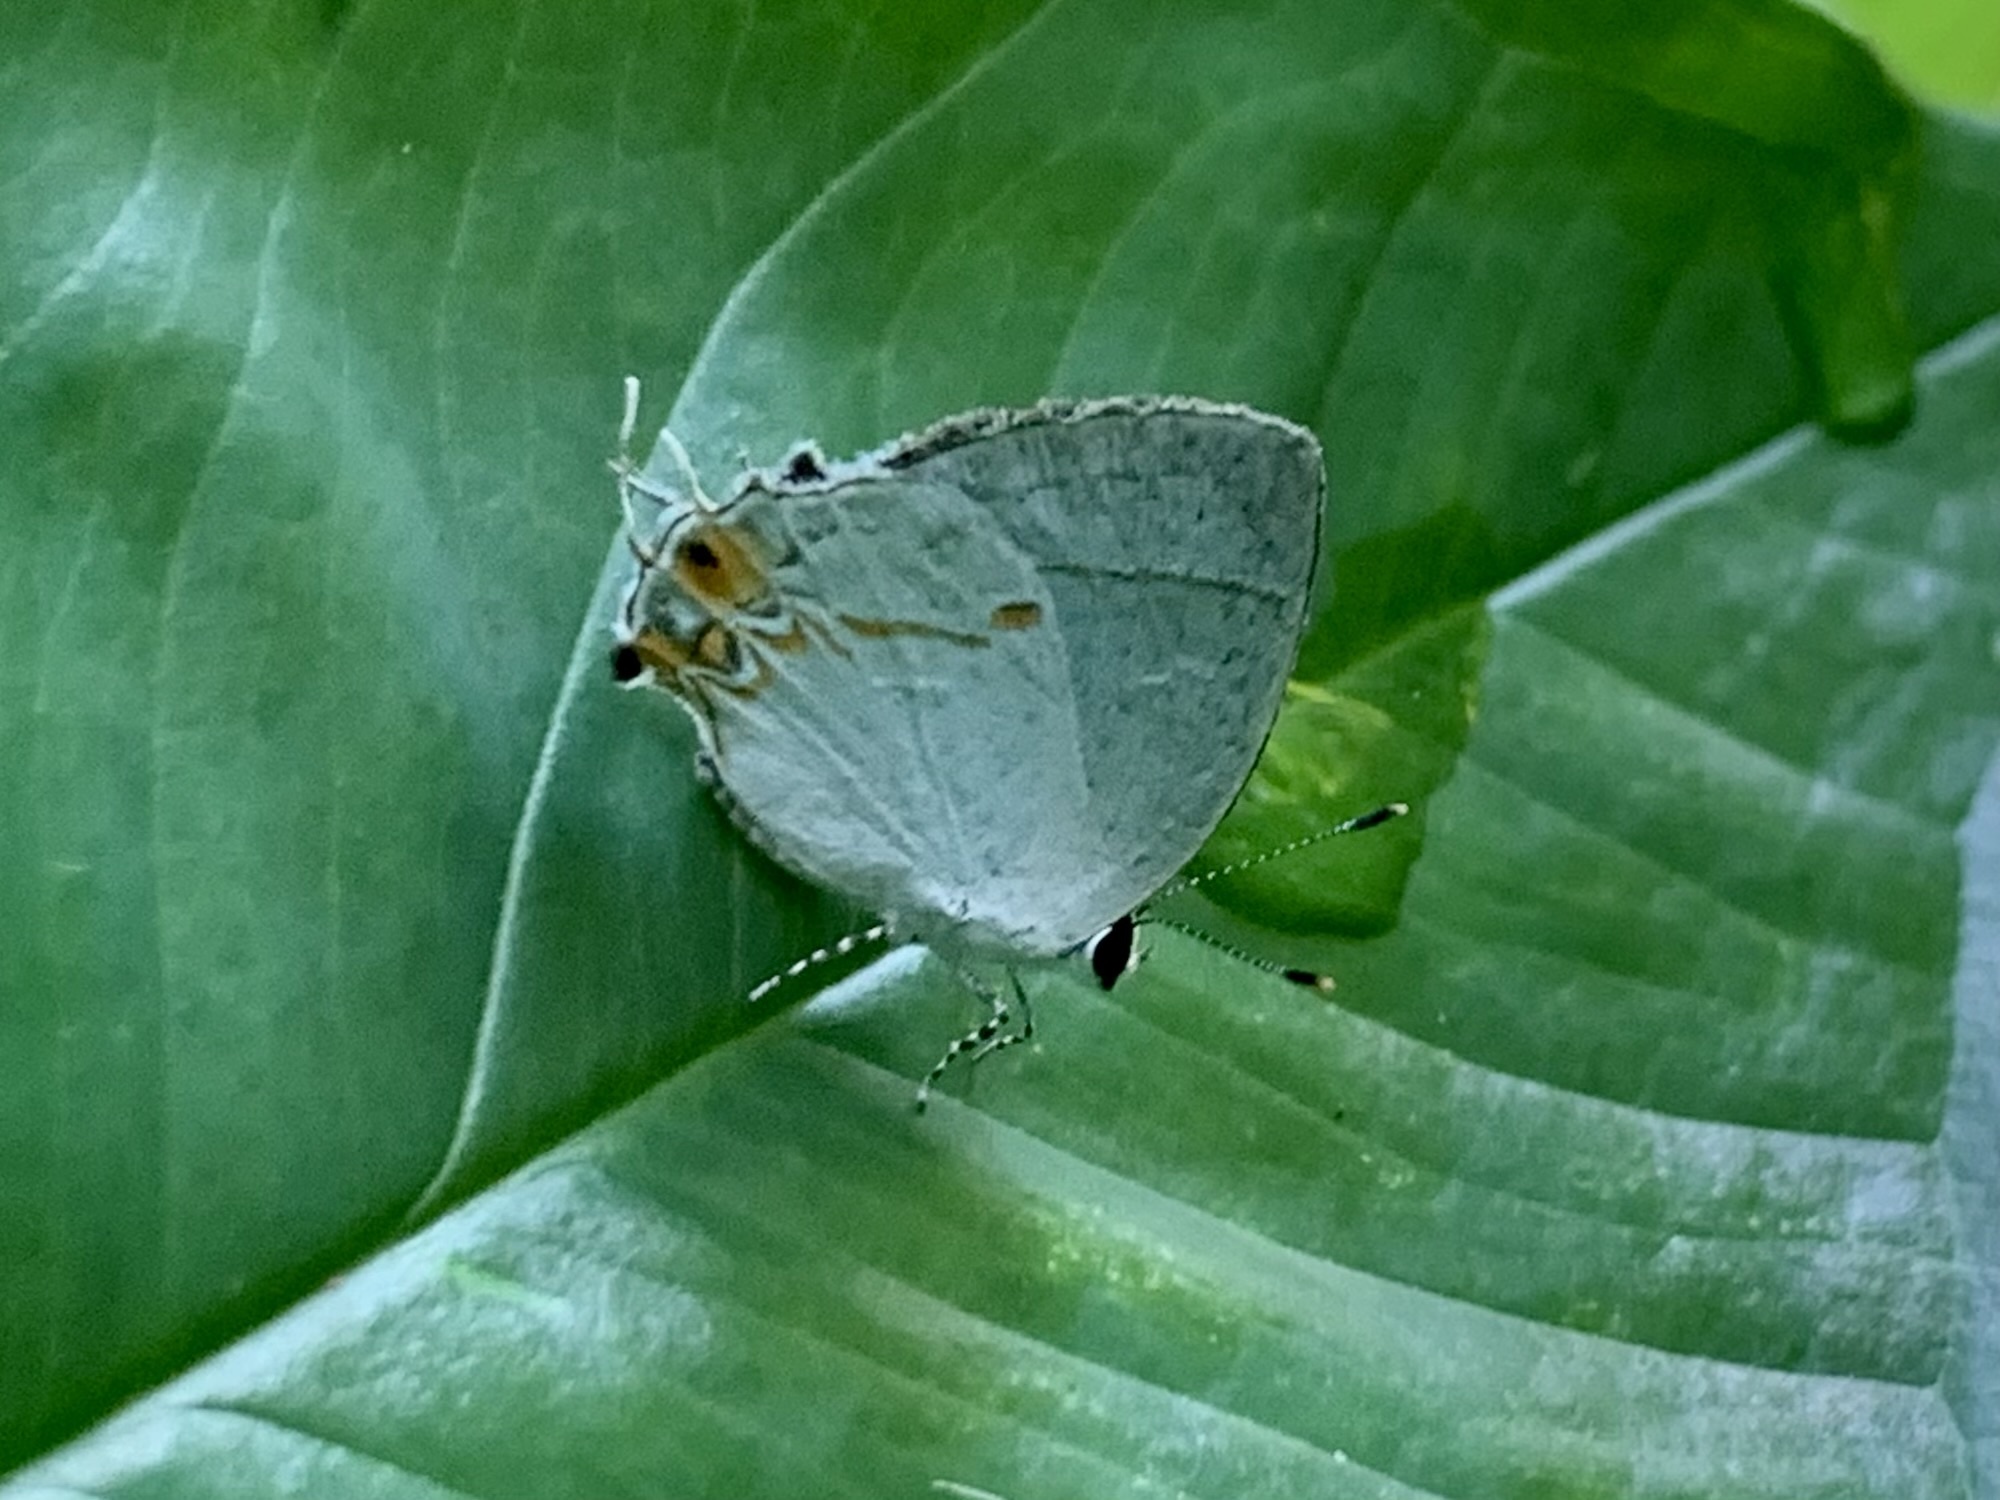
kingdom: Animalia
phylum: Arthropoda
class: Insecta
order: Lepidoptera
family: Lycaenidae
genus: Iaspis
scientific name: Iaspis andersoni
